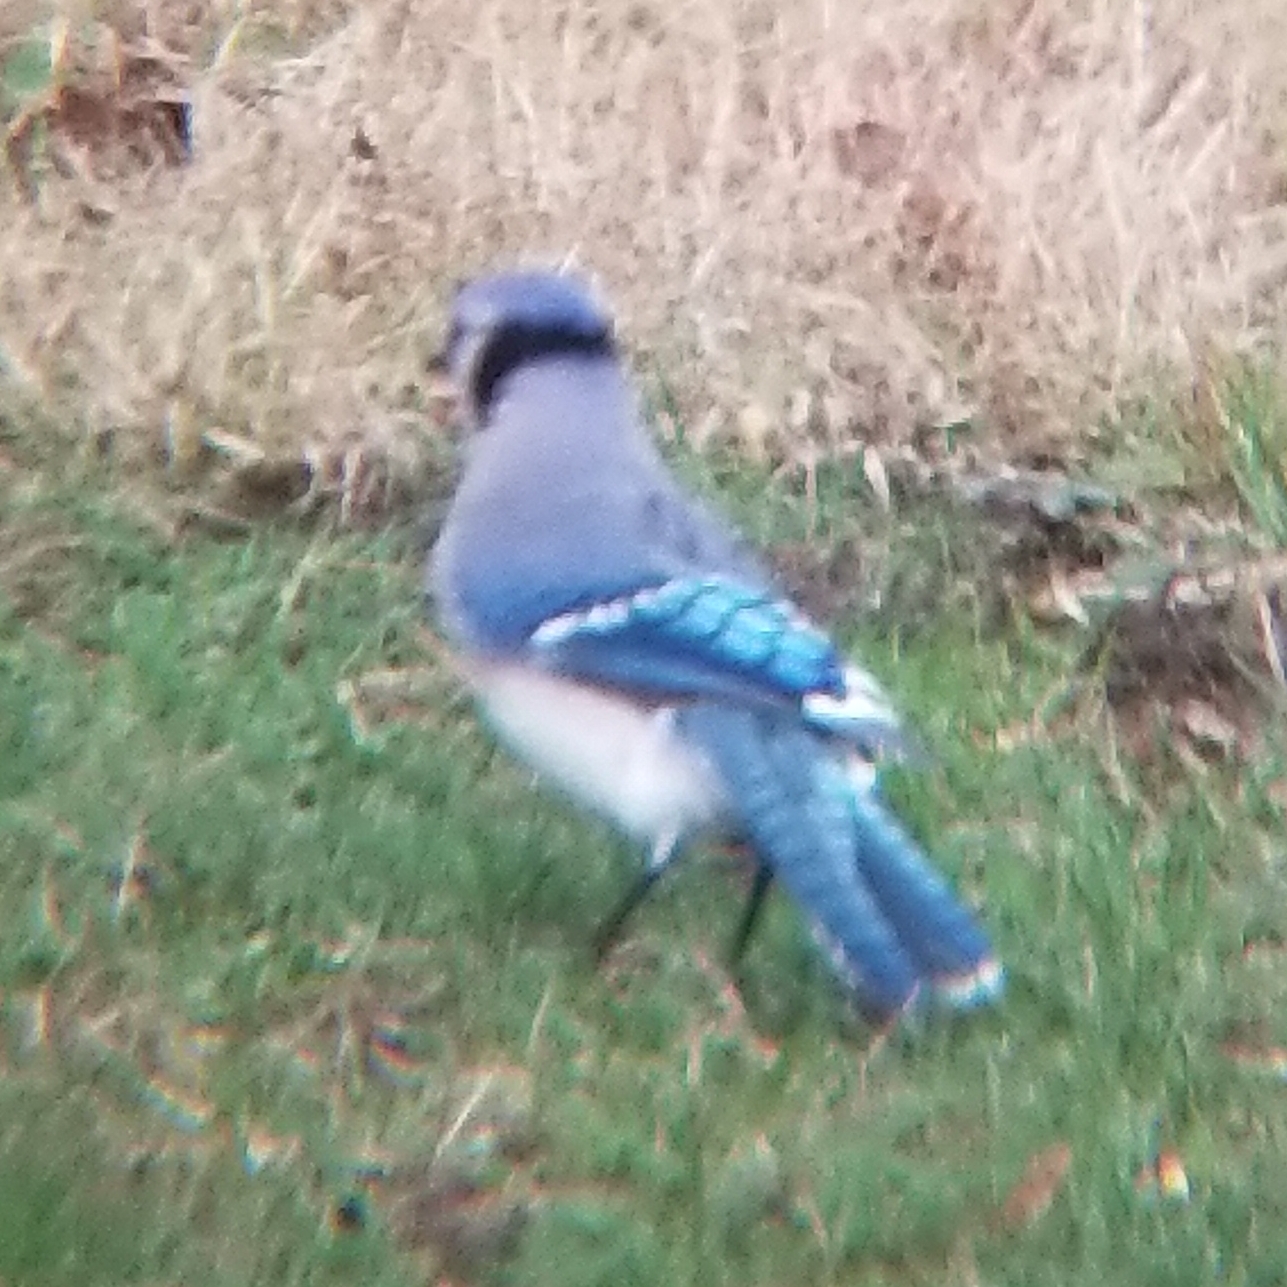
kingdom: Animalia
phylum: Chordata
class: Aves
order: Passeriformes
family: Corvidae
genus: Cyanocitta
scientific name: Cyanocitta cristata
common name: Blue jay
